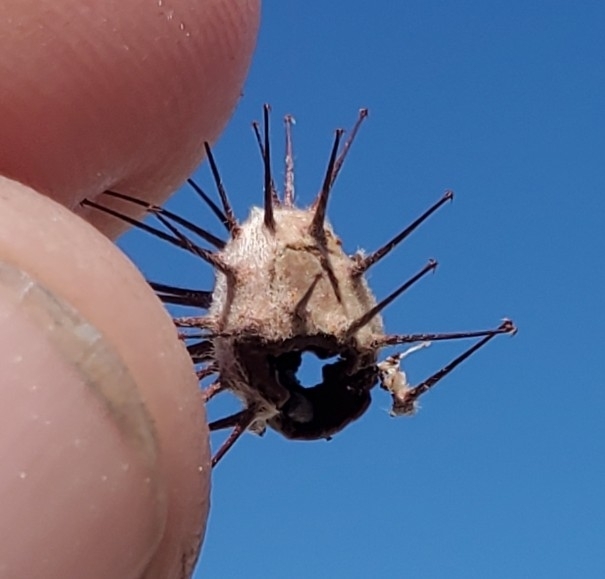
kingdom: Plantae
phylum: Tracheophyta
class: Magnoliopsida
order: Zygophyllales
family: Krameriaceae
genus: Krameria
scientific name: Krameria bicolor
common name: White ratany
